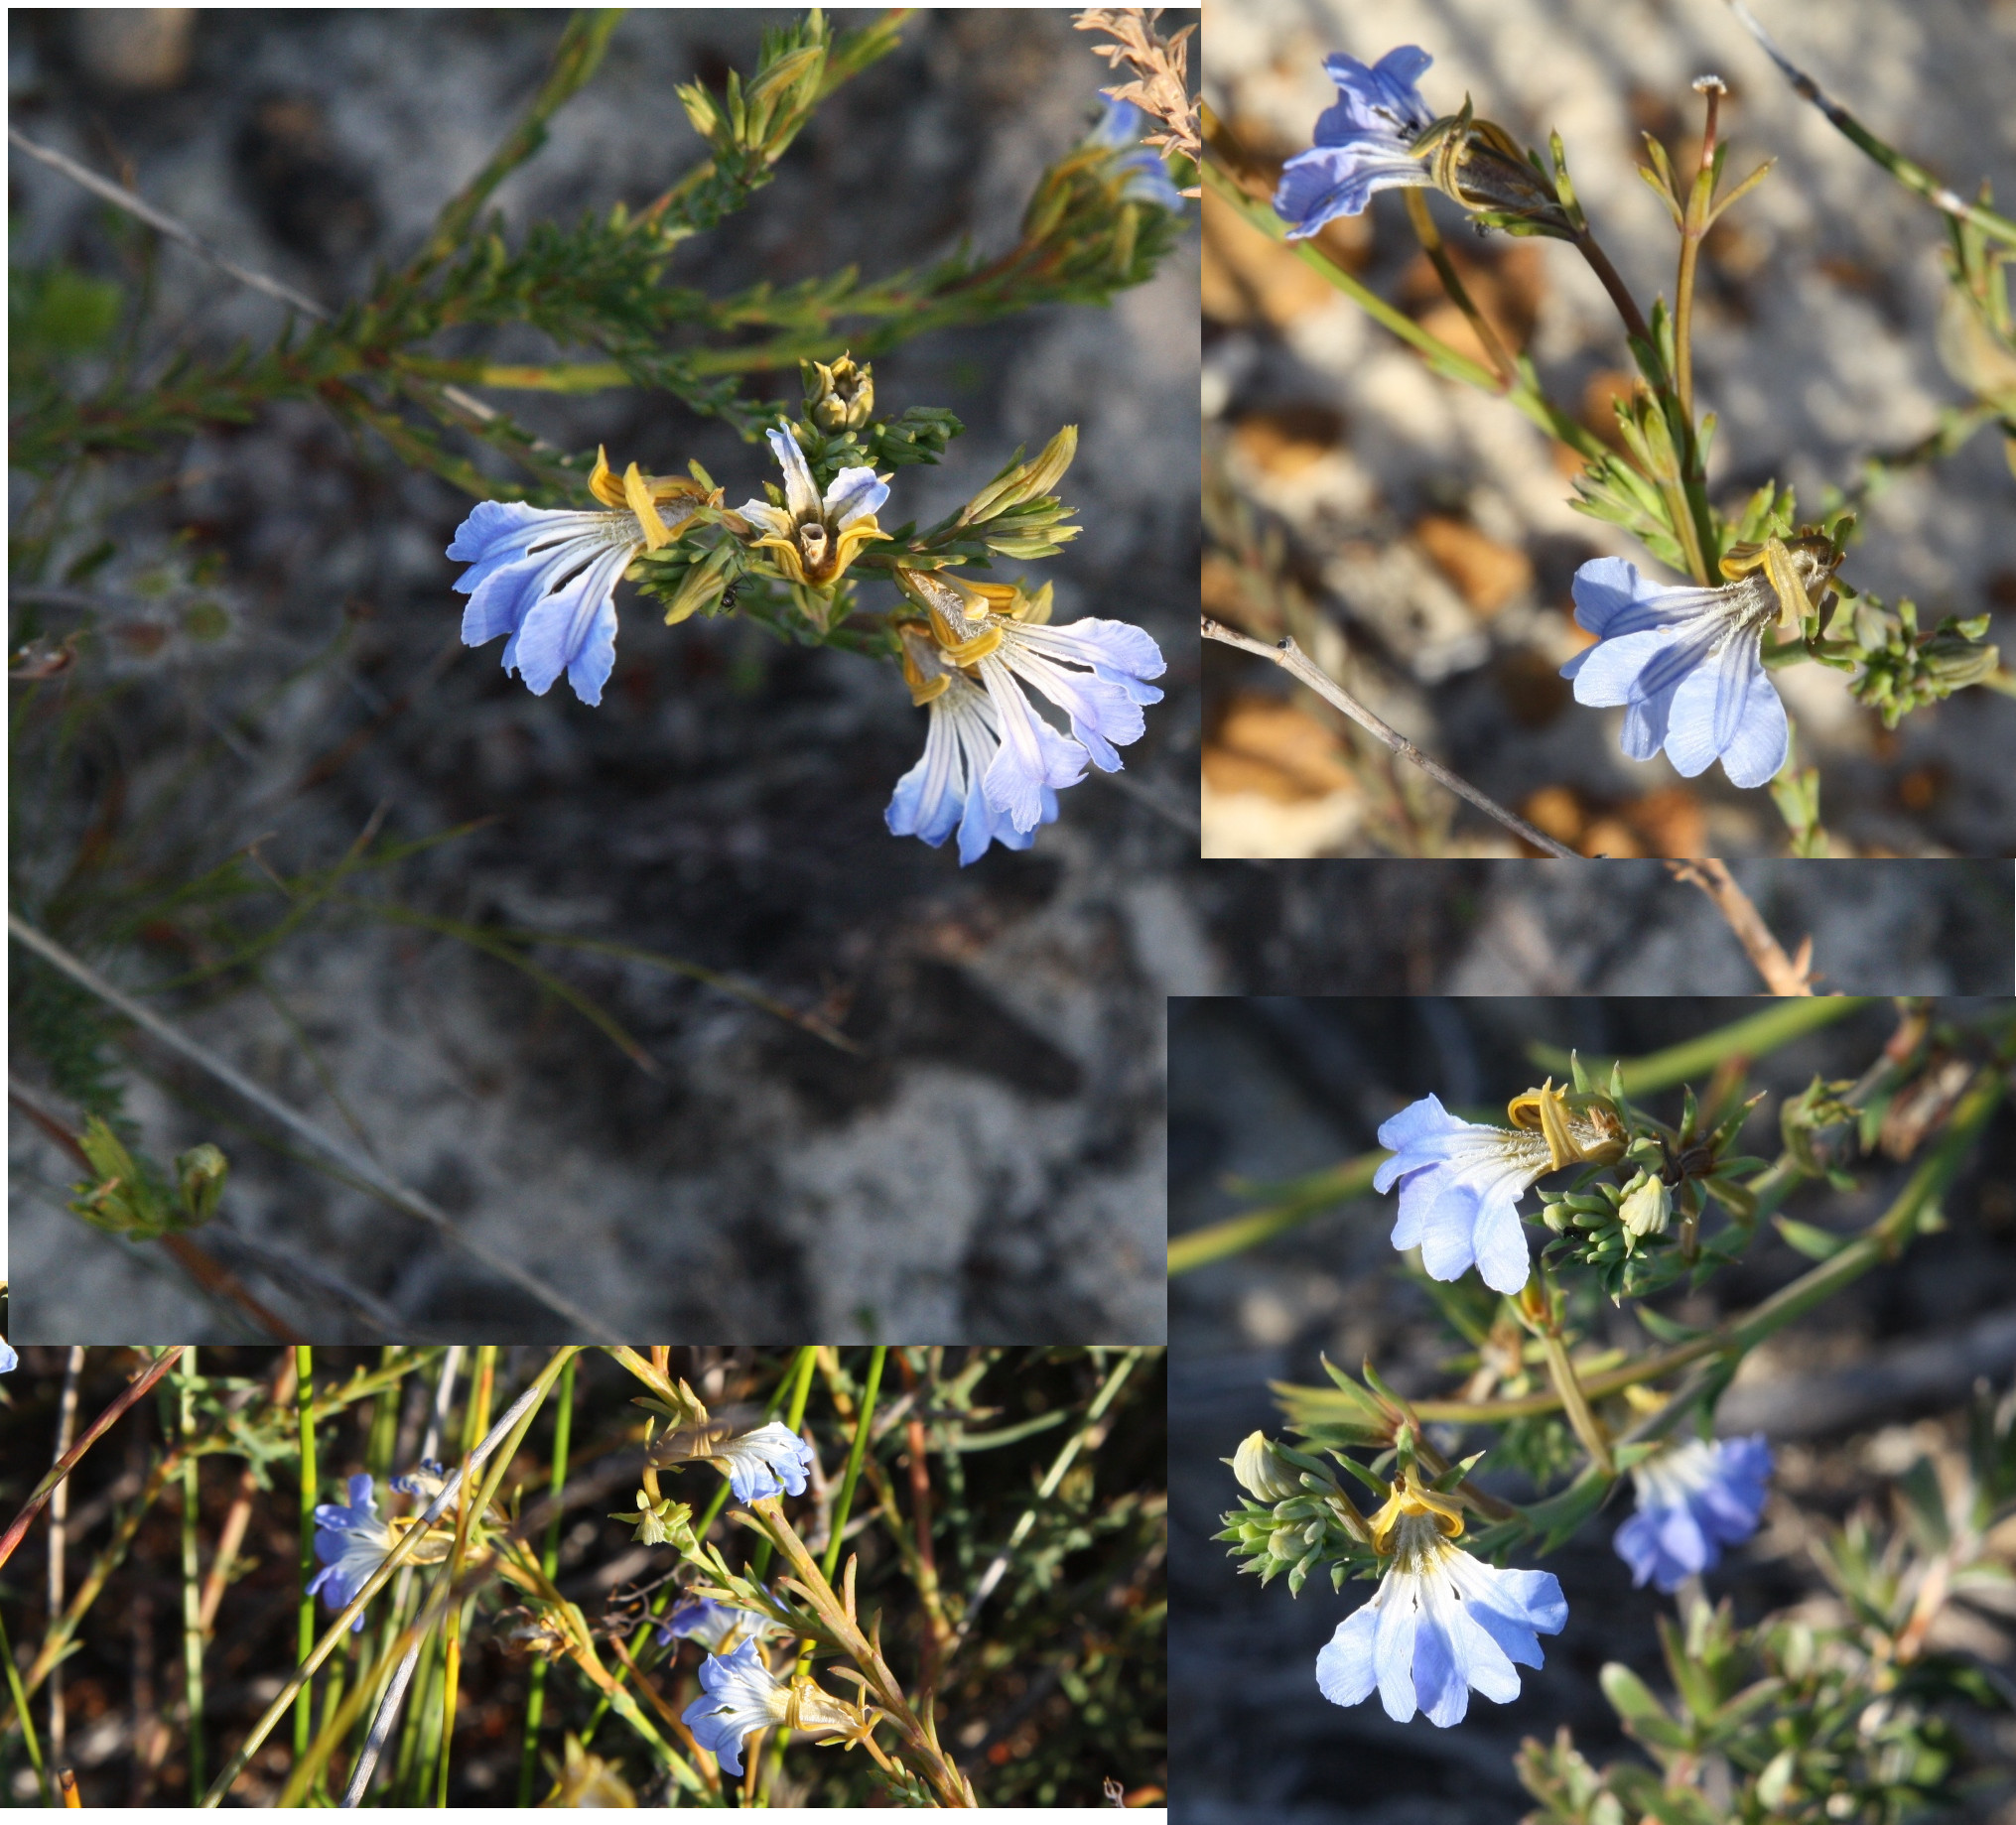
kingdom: Plantae
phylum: Tracheophyta
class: Magnoliopsida
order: Asterales
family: Goodeniaceae
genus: Lechenaultia
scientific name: Lechenaultia heteromera
